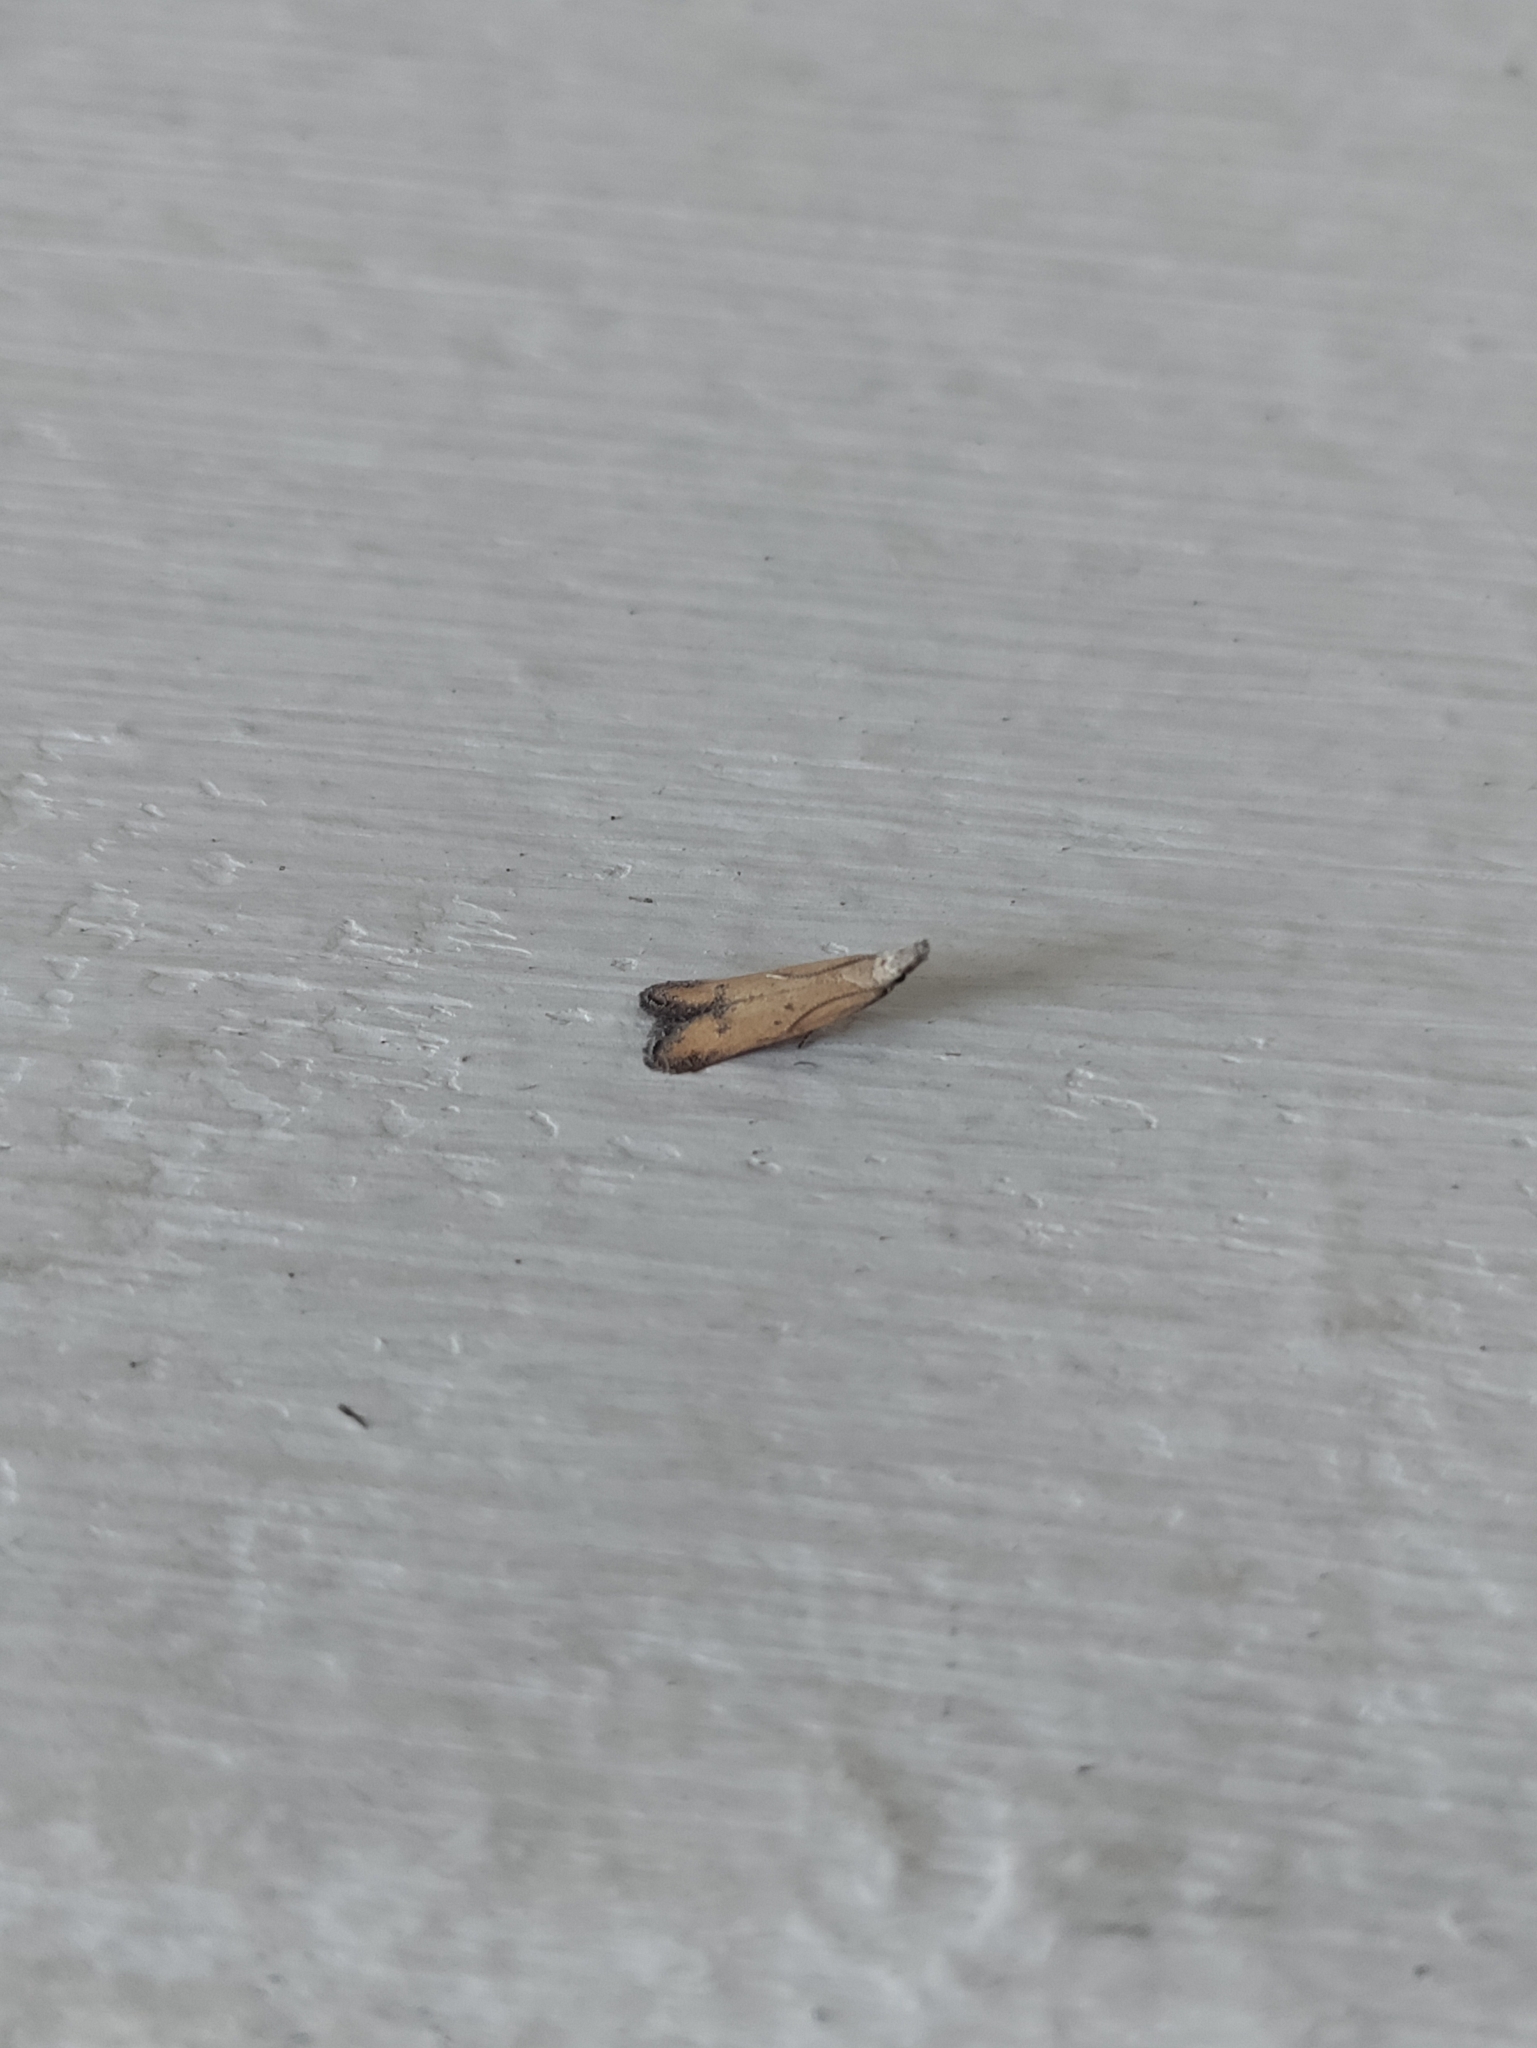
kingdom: Animalia
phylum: Arthropoda
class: Insecta
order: Lepidoptera
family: Gelechiidae
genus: Mesophleps
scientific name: Mesophleps corsicella
